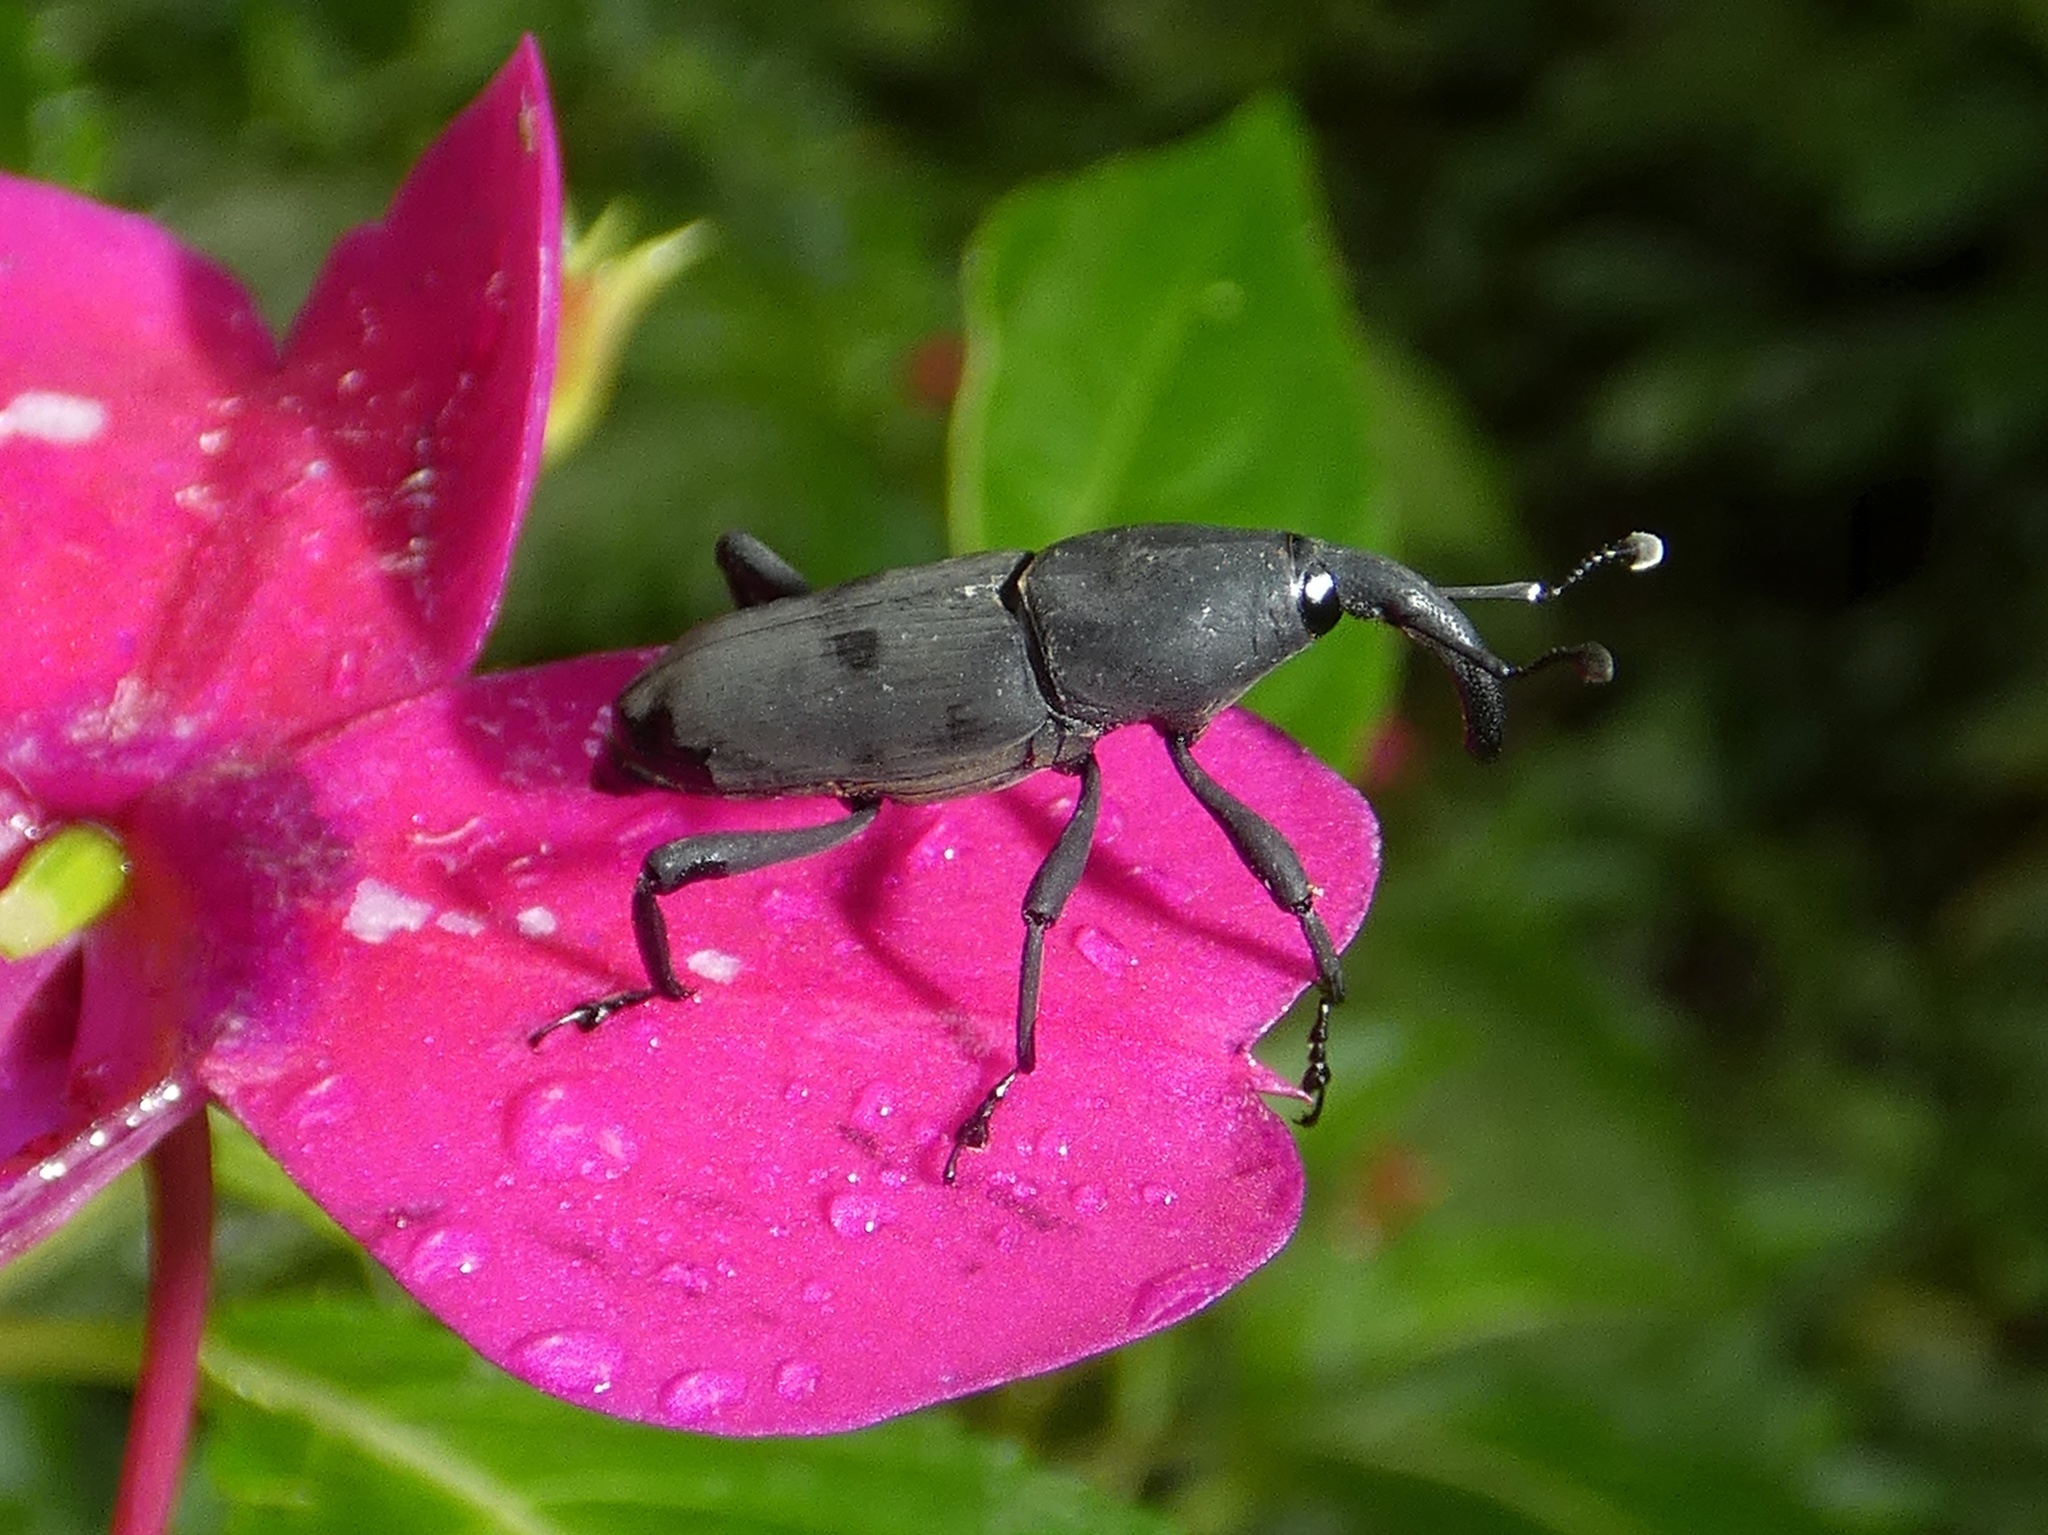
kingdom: Animalia
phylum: Arthropoda
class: Insecta
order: Coleoptera
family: Dryophthoridae
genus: Rhodobaenus
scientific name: Rhodobaenus nawradii
